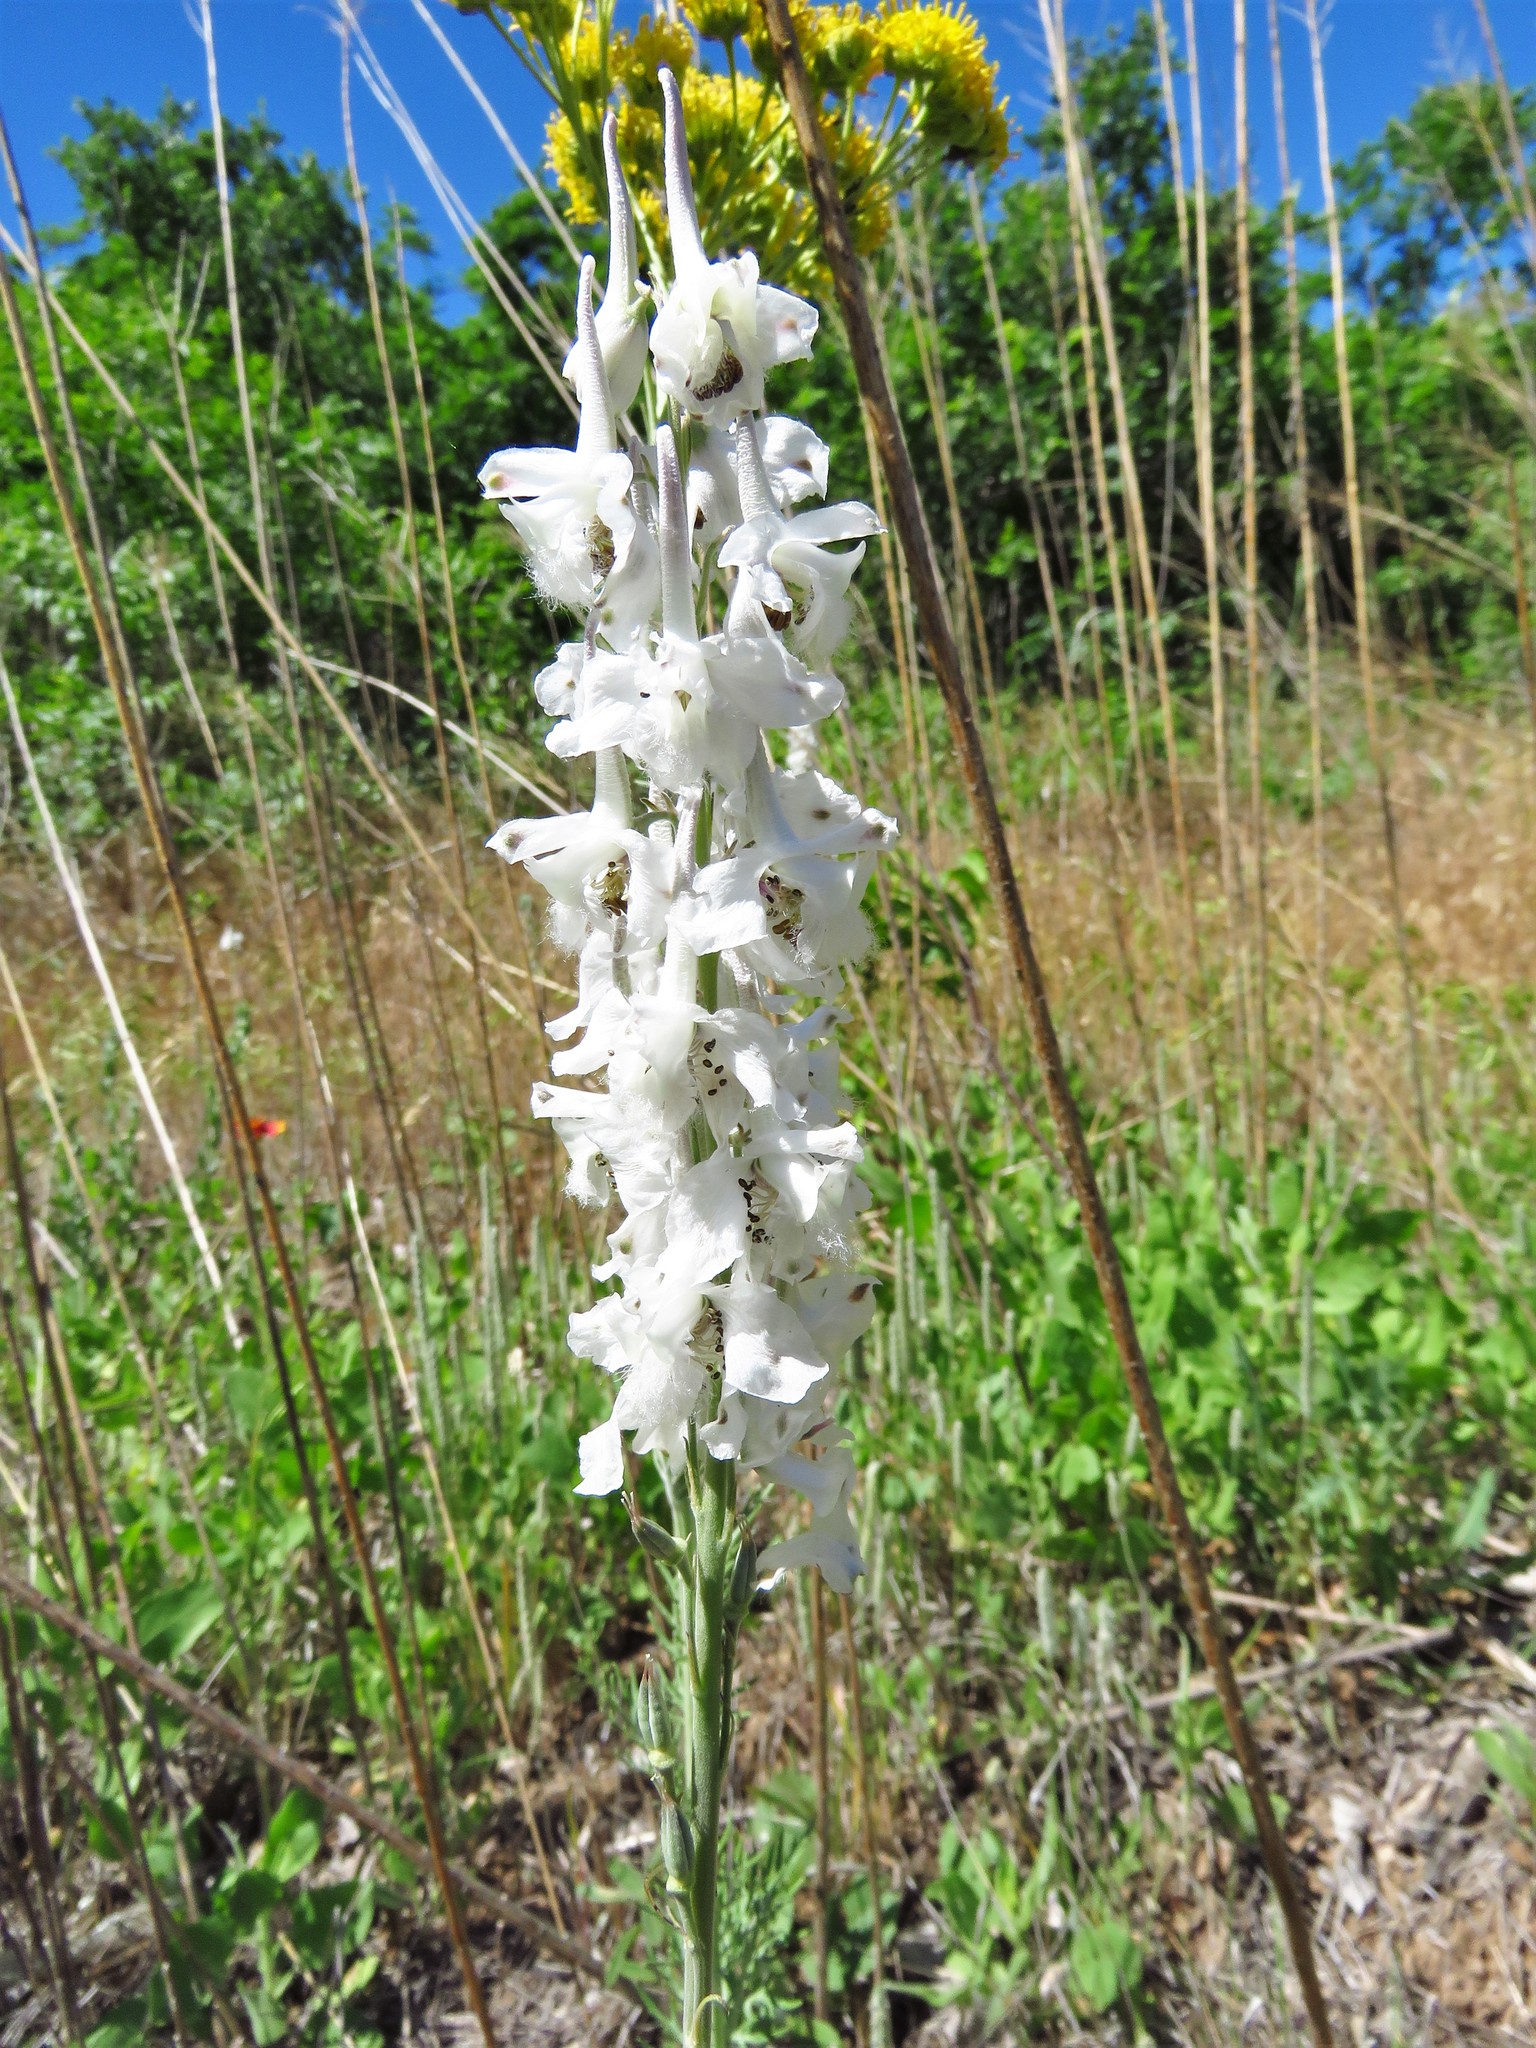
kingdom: Plantae
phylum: Tracheophyta
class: Magnoliopsida
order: Ranunculales
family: Ranunculaceae
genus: Delphinium
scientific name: Delphinium carolinianum
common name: Carolina larkspur
